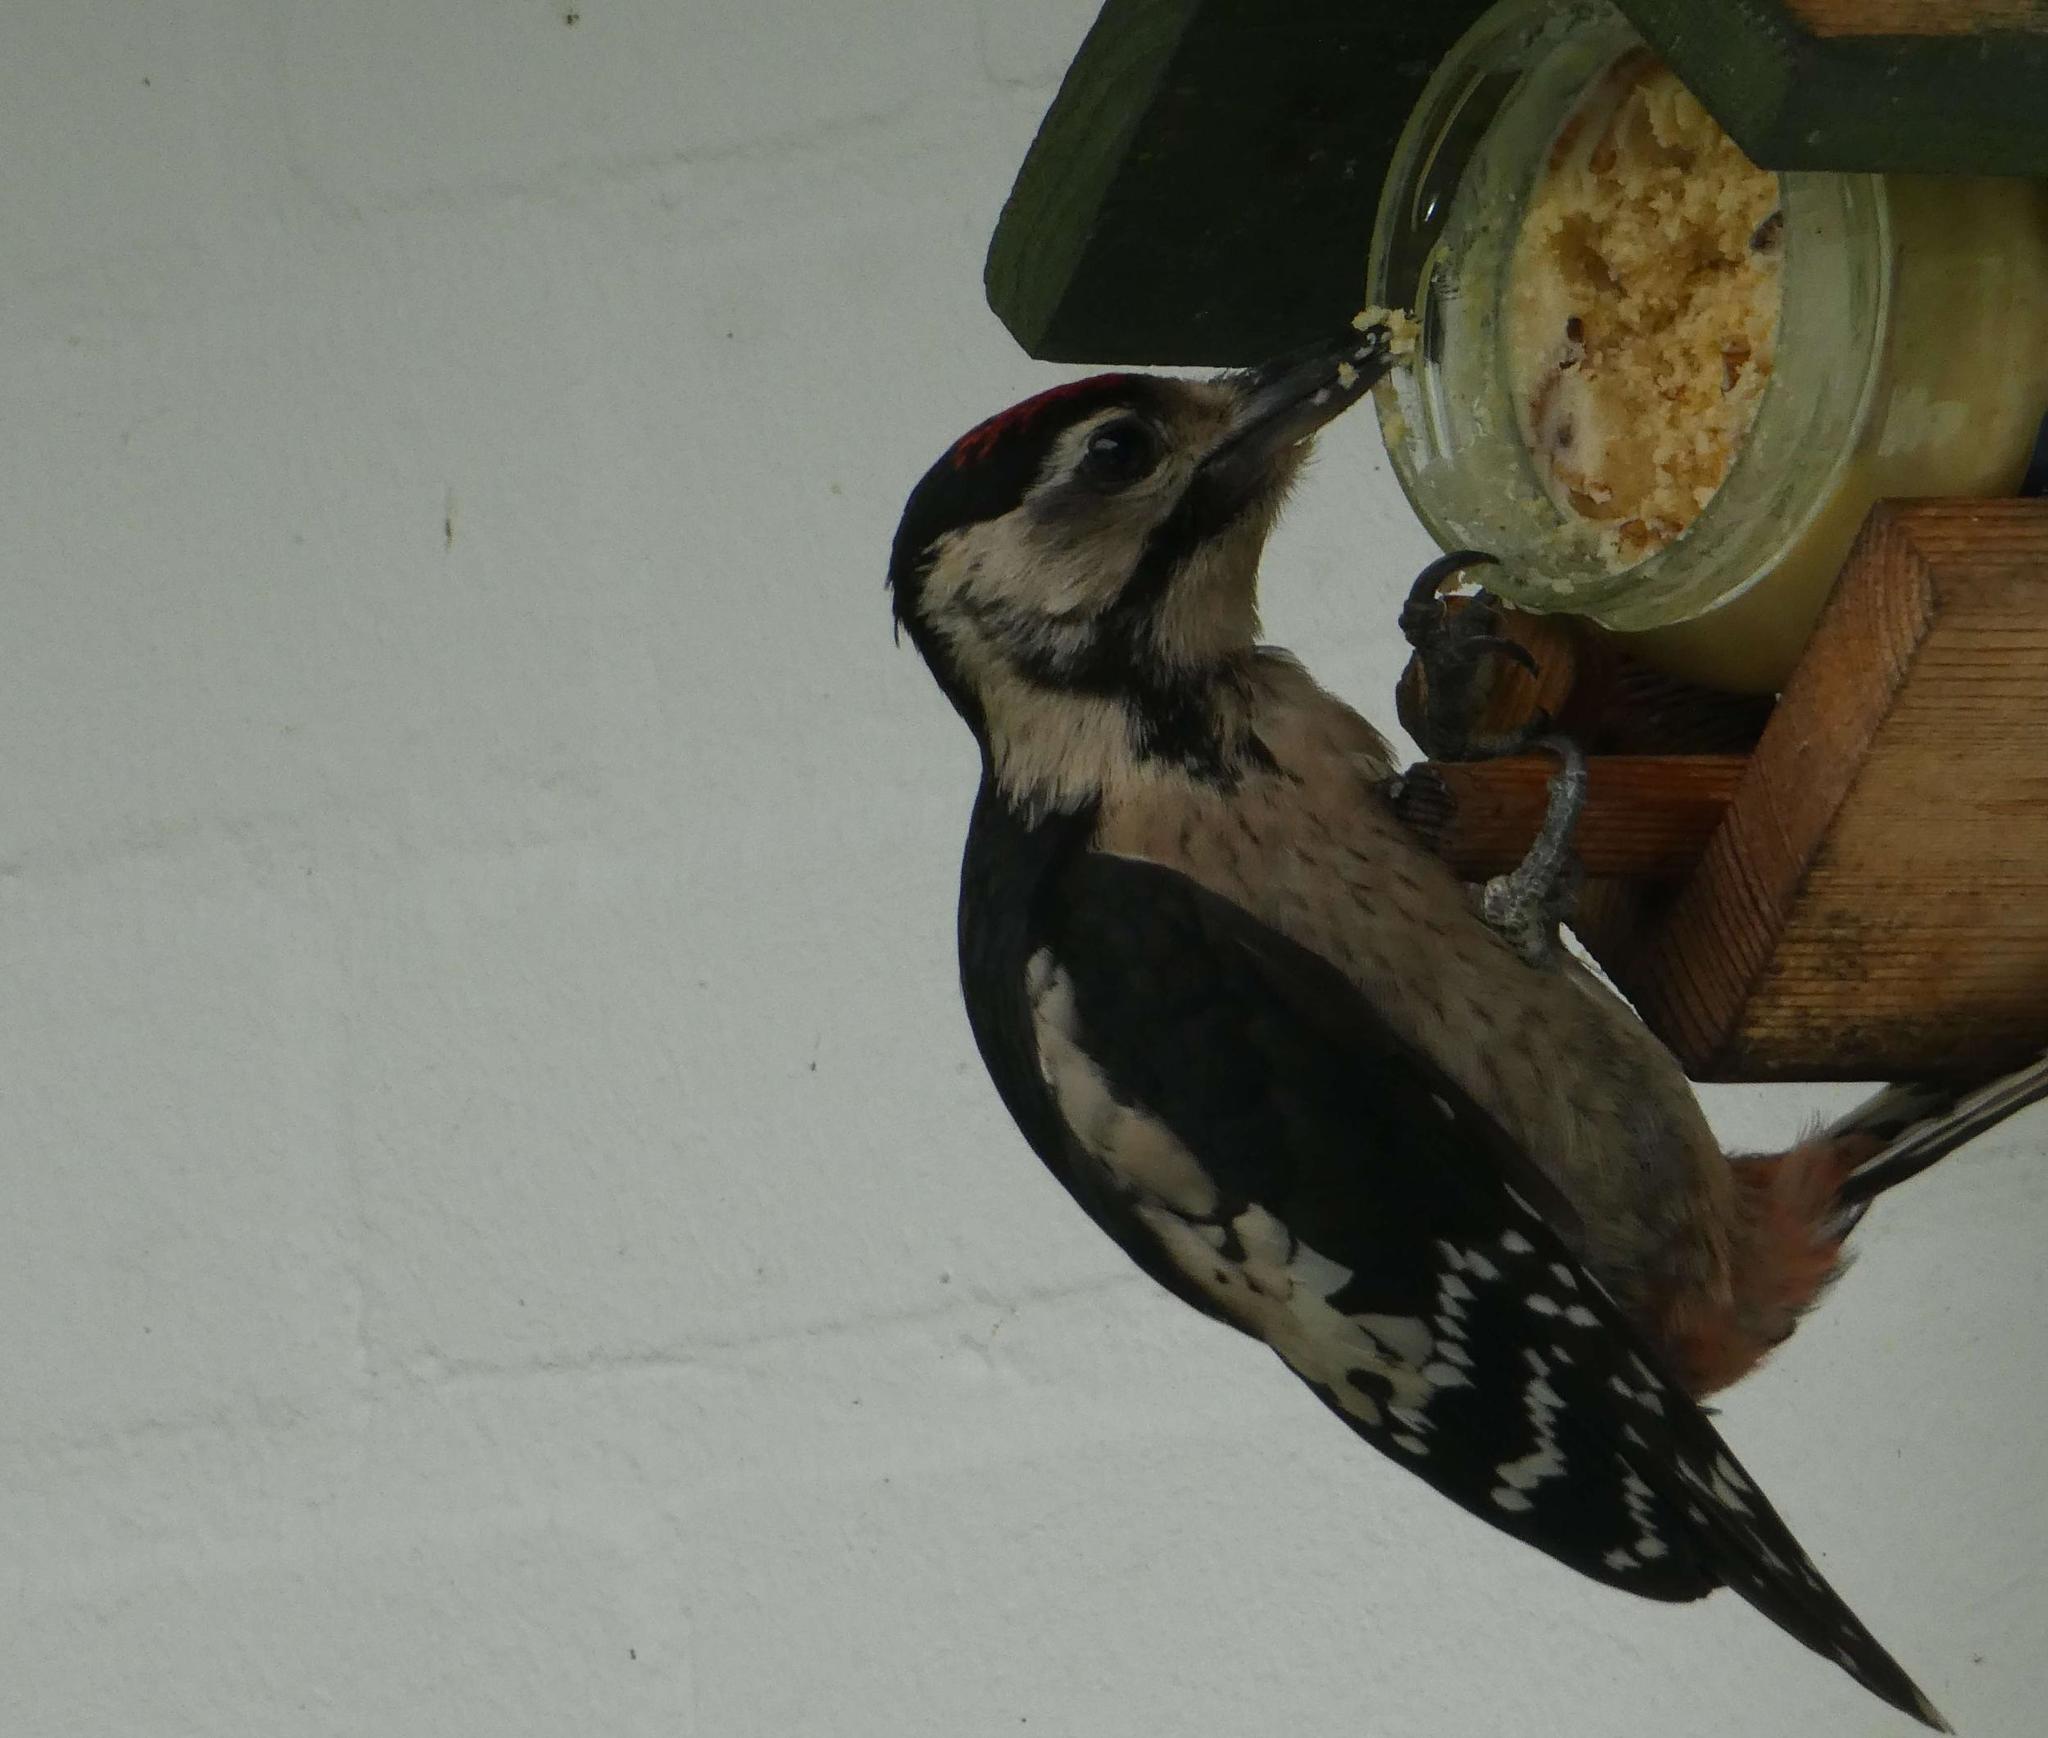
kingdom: Animalia
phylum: Chordata
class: Aves
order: Piciformes
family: Picidae
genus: Dendrocopos
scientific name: Dendrocopos major
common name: Great spotted woodpecker
